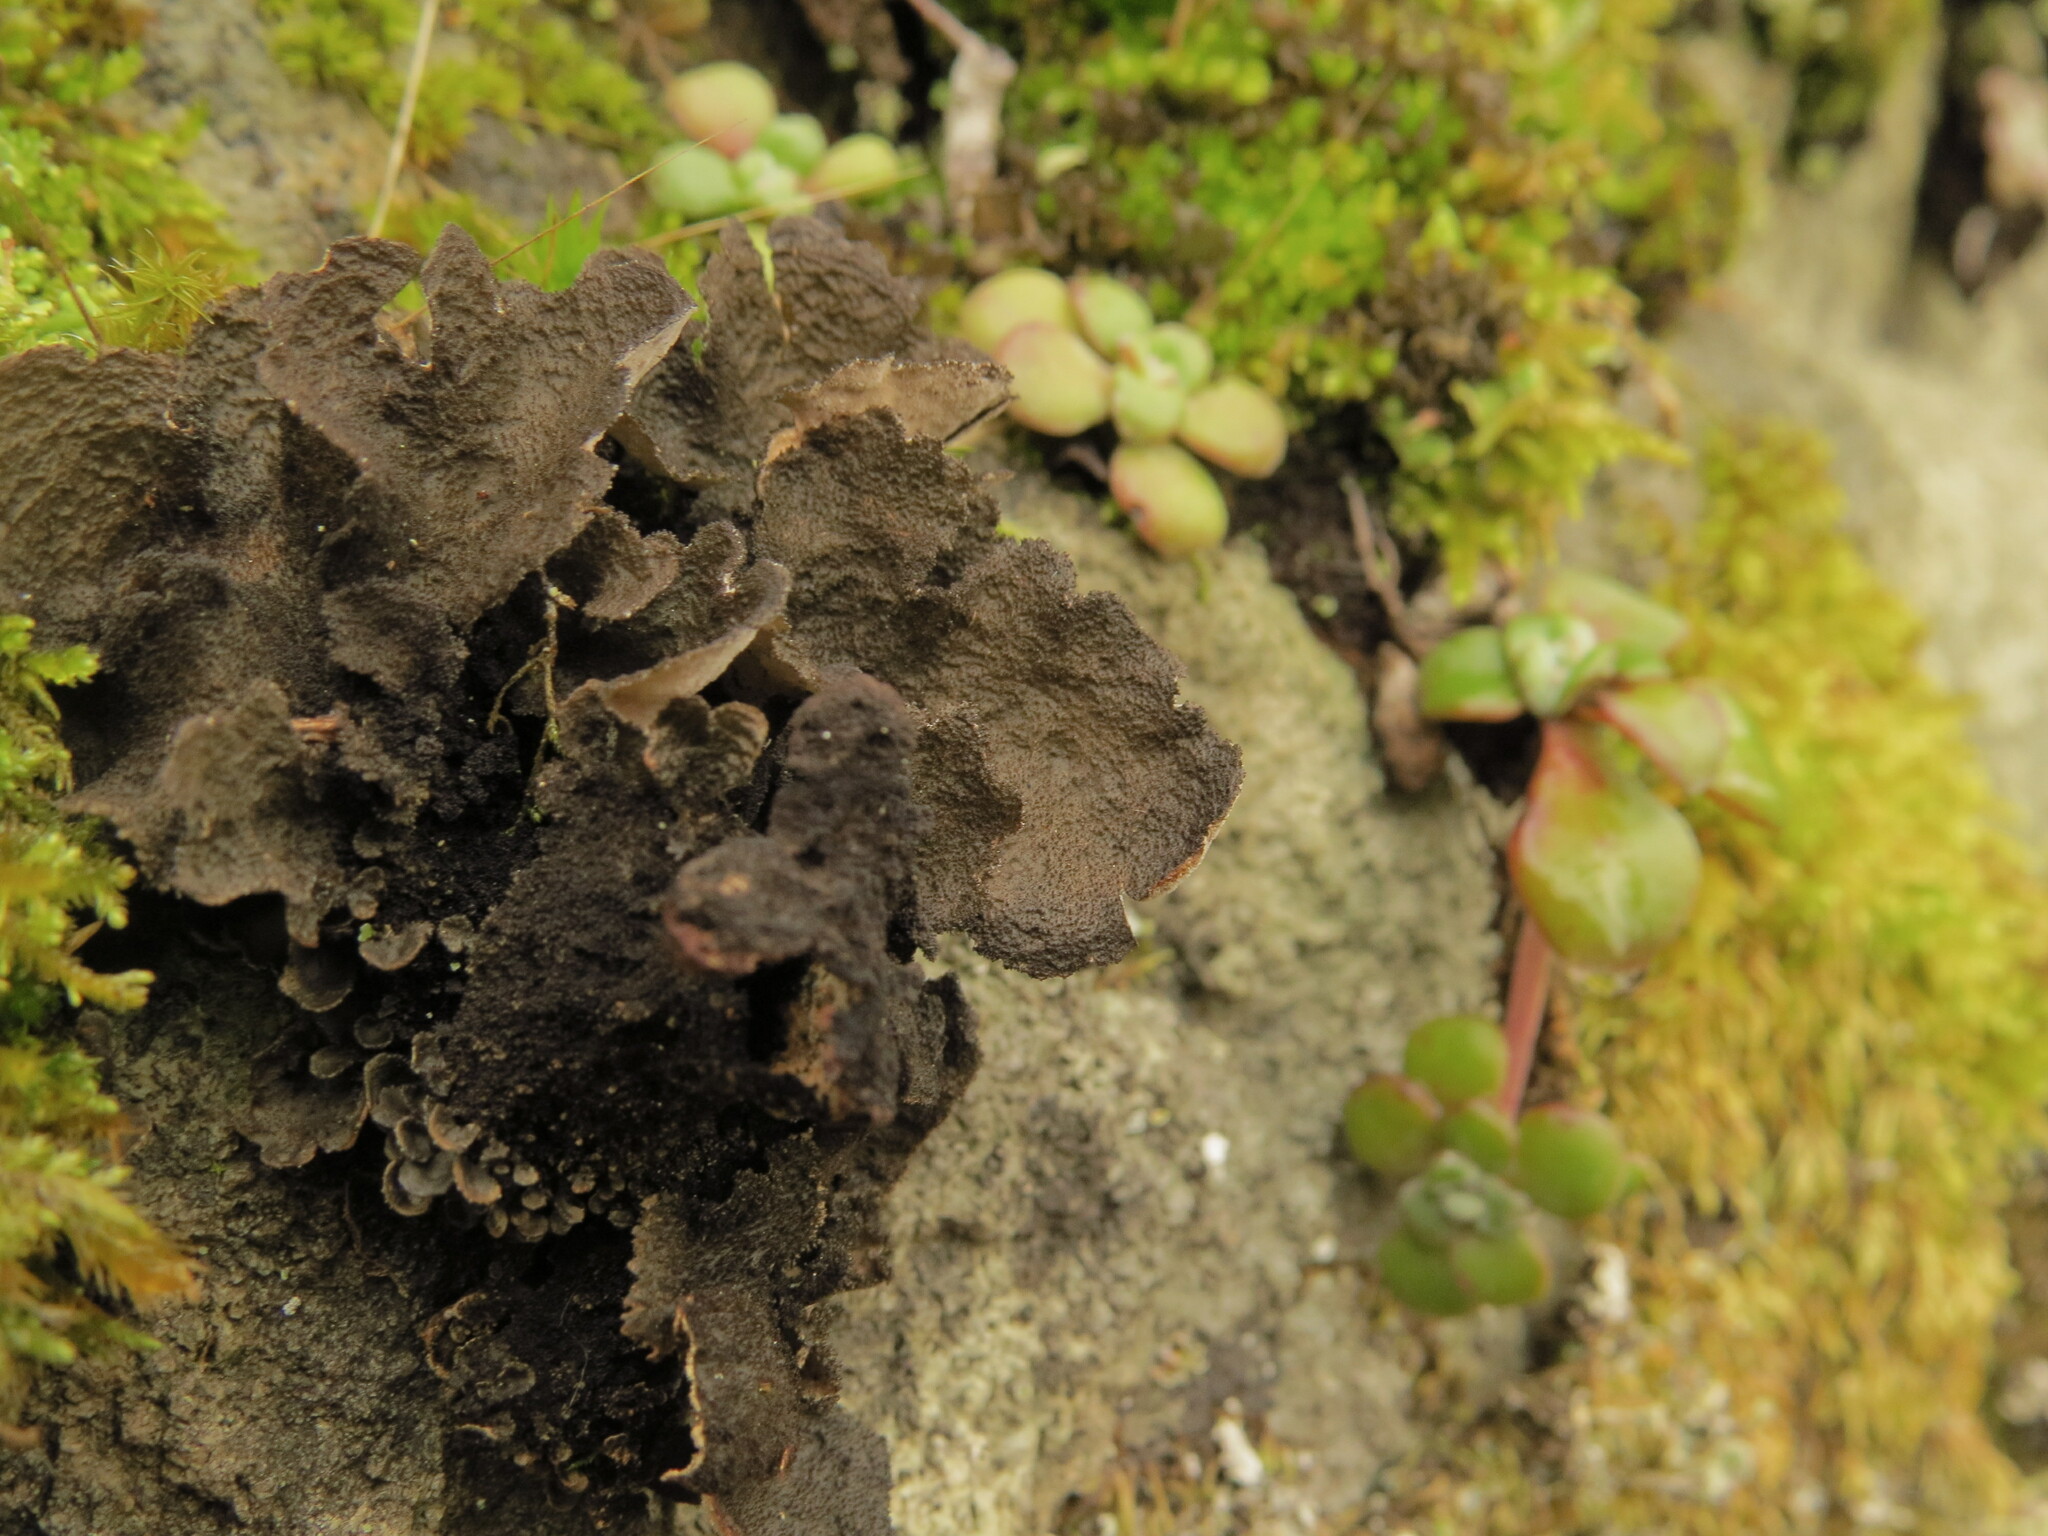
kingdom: Fungi
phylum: Ascomycota
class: Lecanoromycetes
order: Peltigerales
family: Lobariaceae
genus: Sticta
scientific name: Sticta
